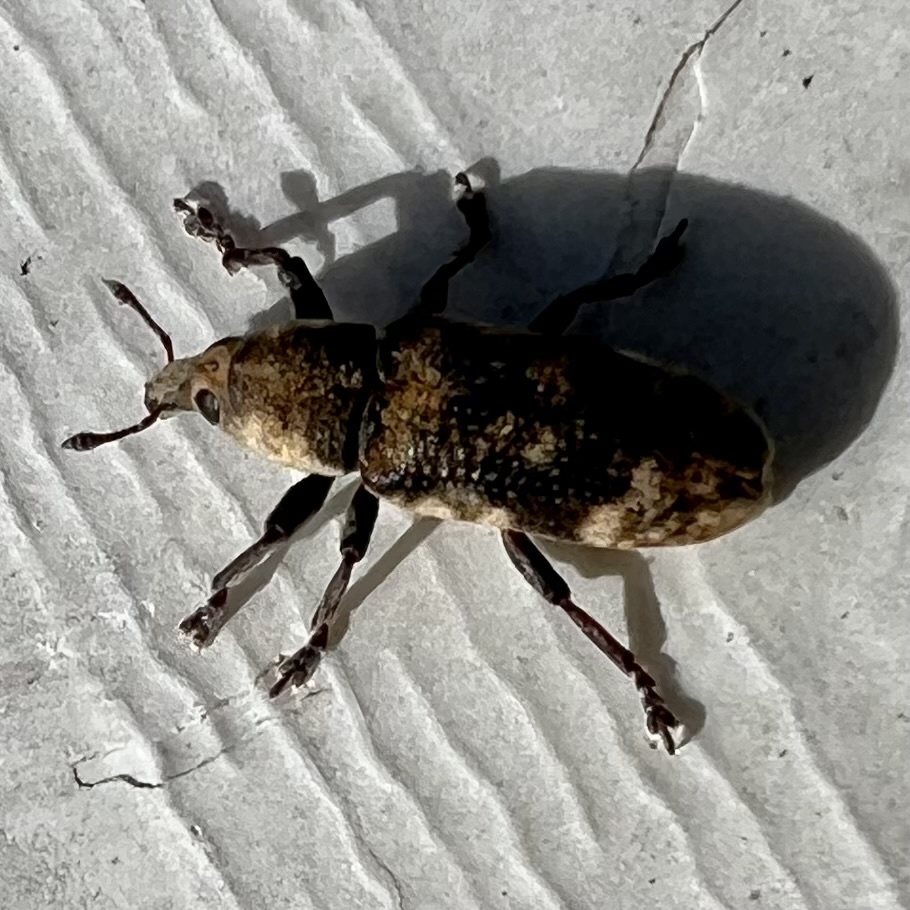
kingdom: Animalia
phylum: Arthropoda
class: Insecta
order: Coleoptera
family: Curculionidae
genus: Hypolixus
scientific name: Hypolixus
